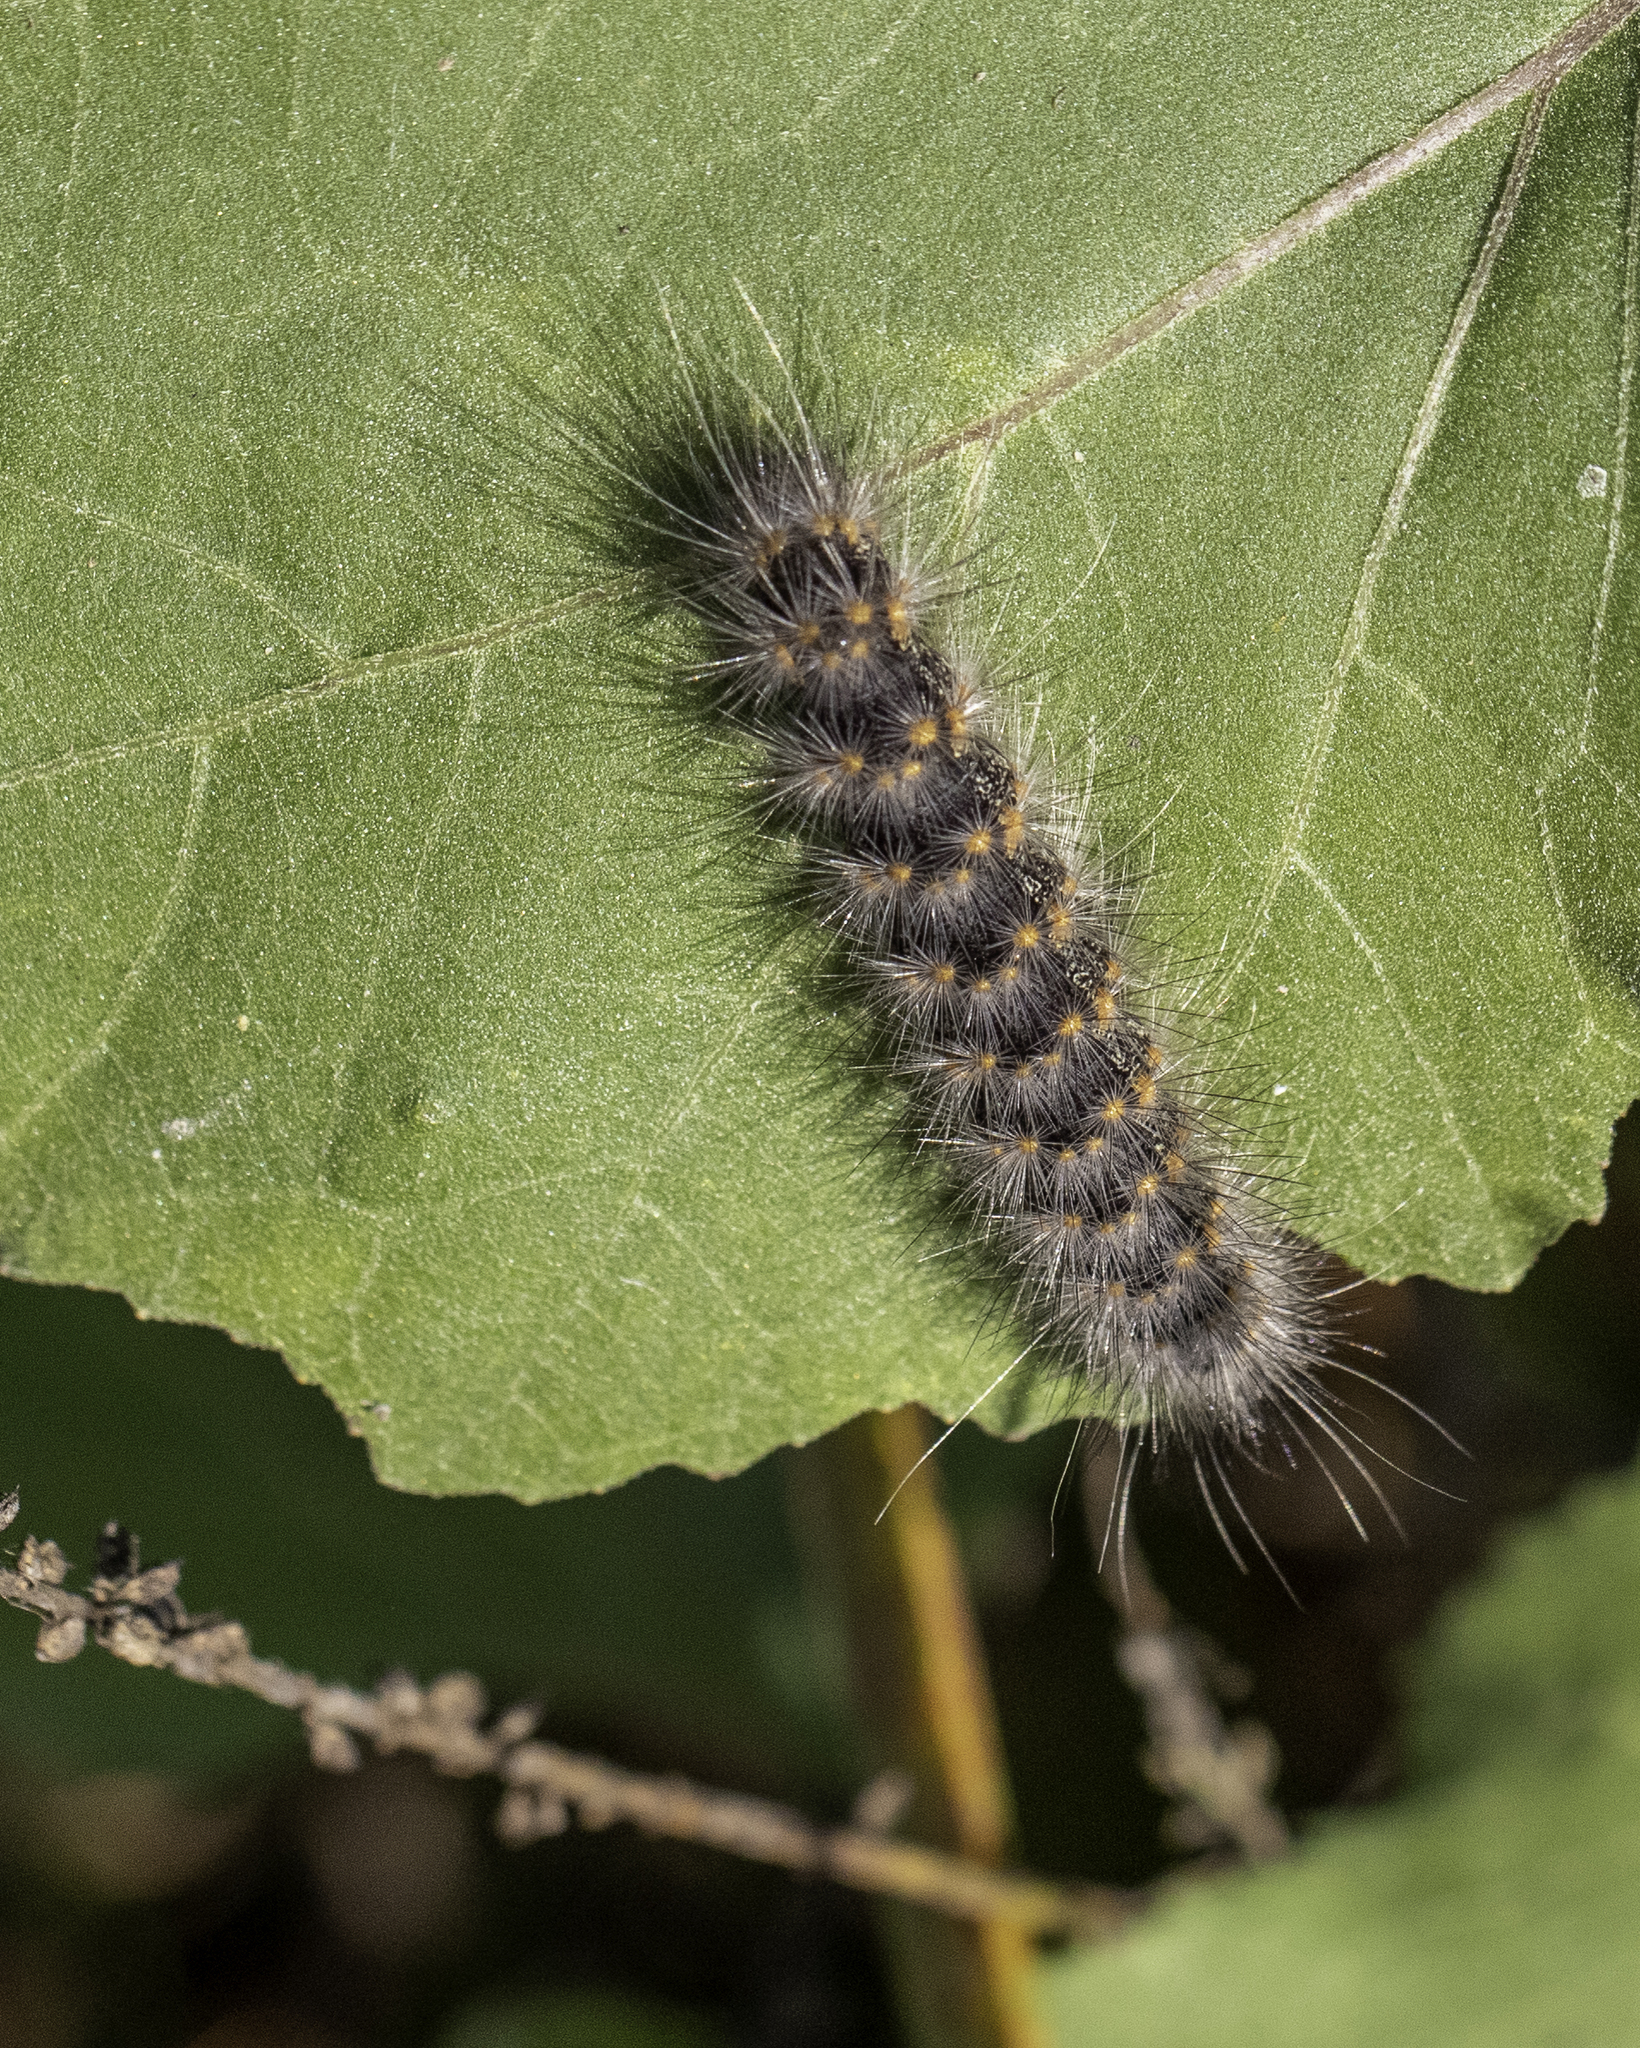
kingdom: Animalia
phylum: Arthropoda
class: Insecta
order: Lepidoptera
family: Erebidae
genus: Estigmene
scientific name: Estigmene acrea
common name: Salt marsh moth
